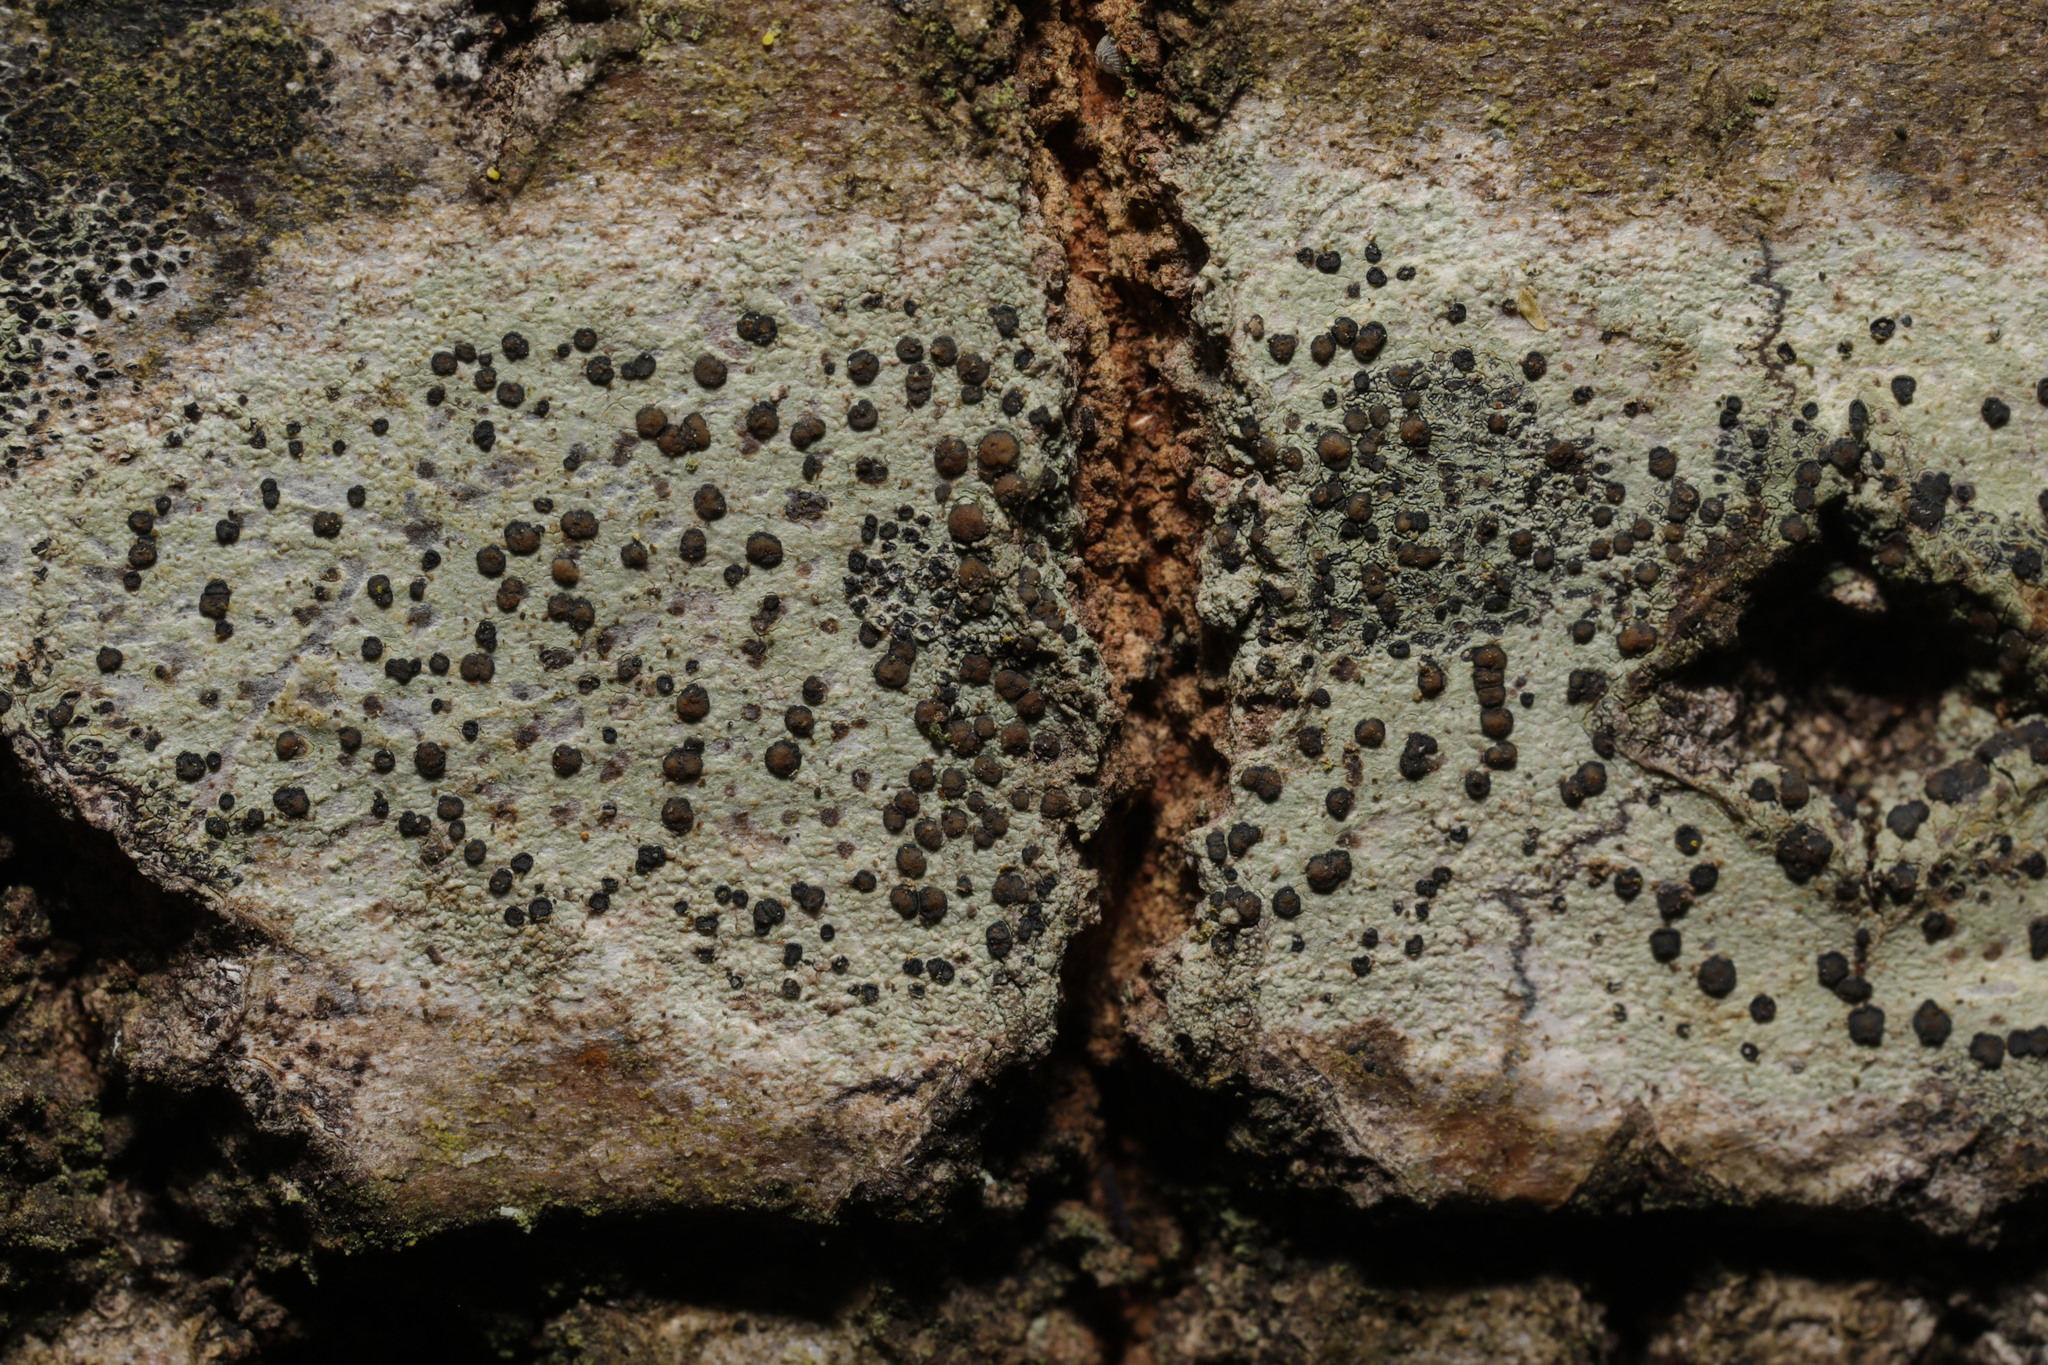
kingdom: Fungi
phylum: Ascomycota
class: Lecanoromycetes
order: Lecanorales
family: Lecanoraceae
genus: Lecidella
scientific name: Lecidella elaeochroma
